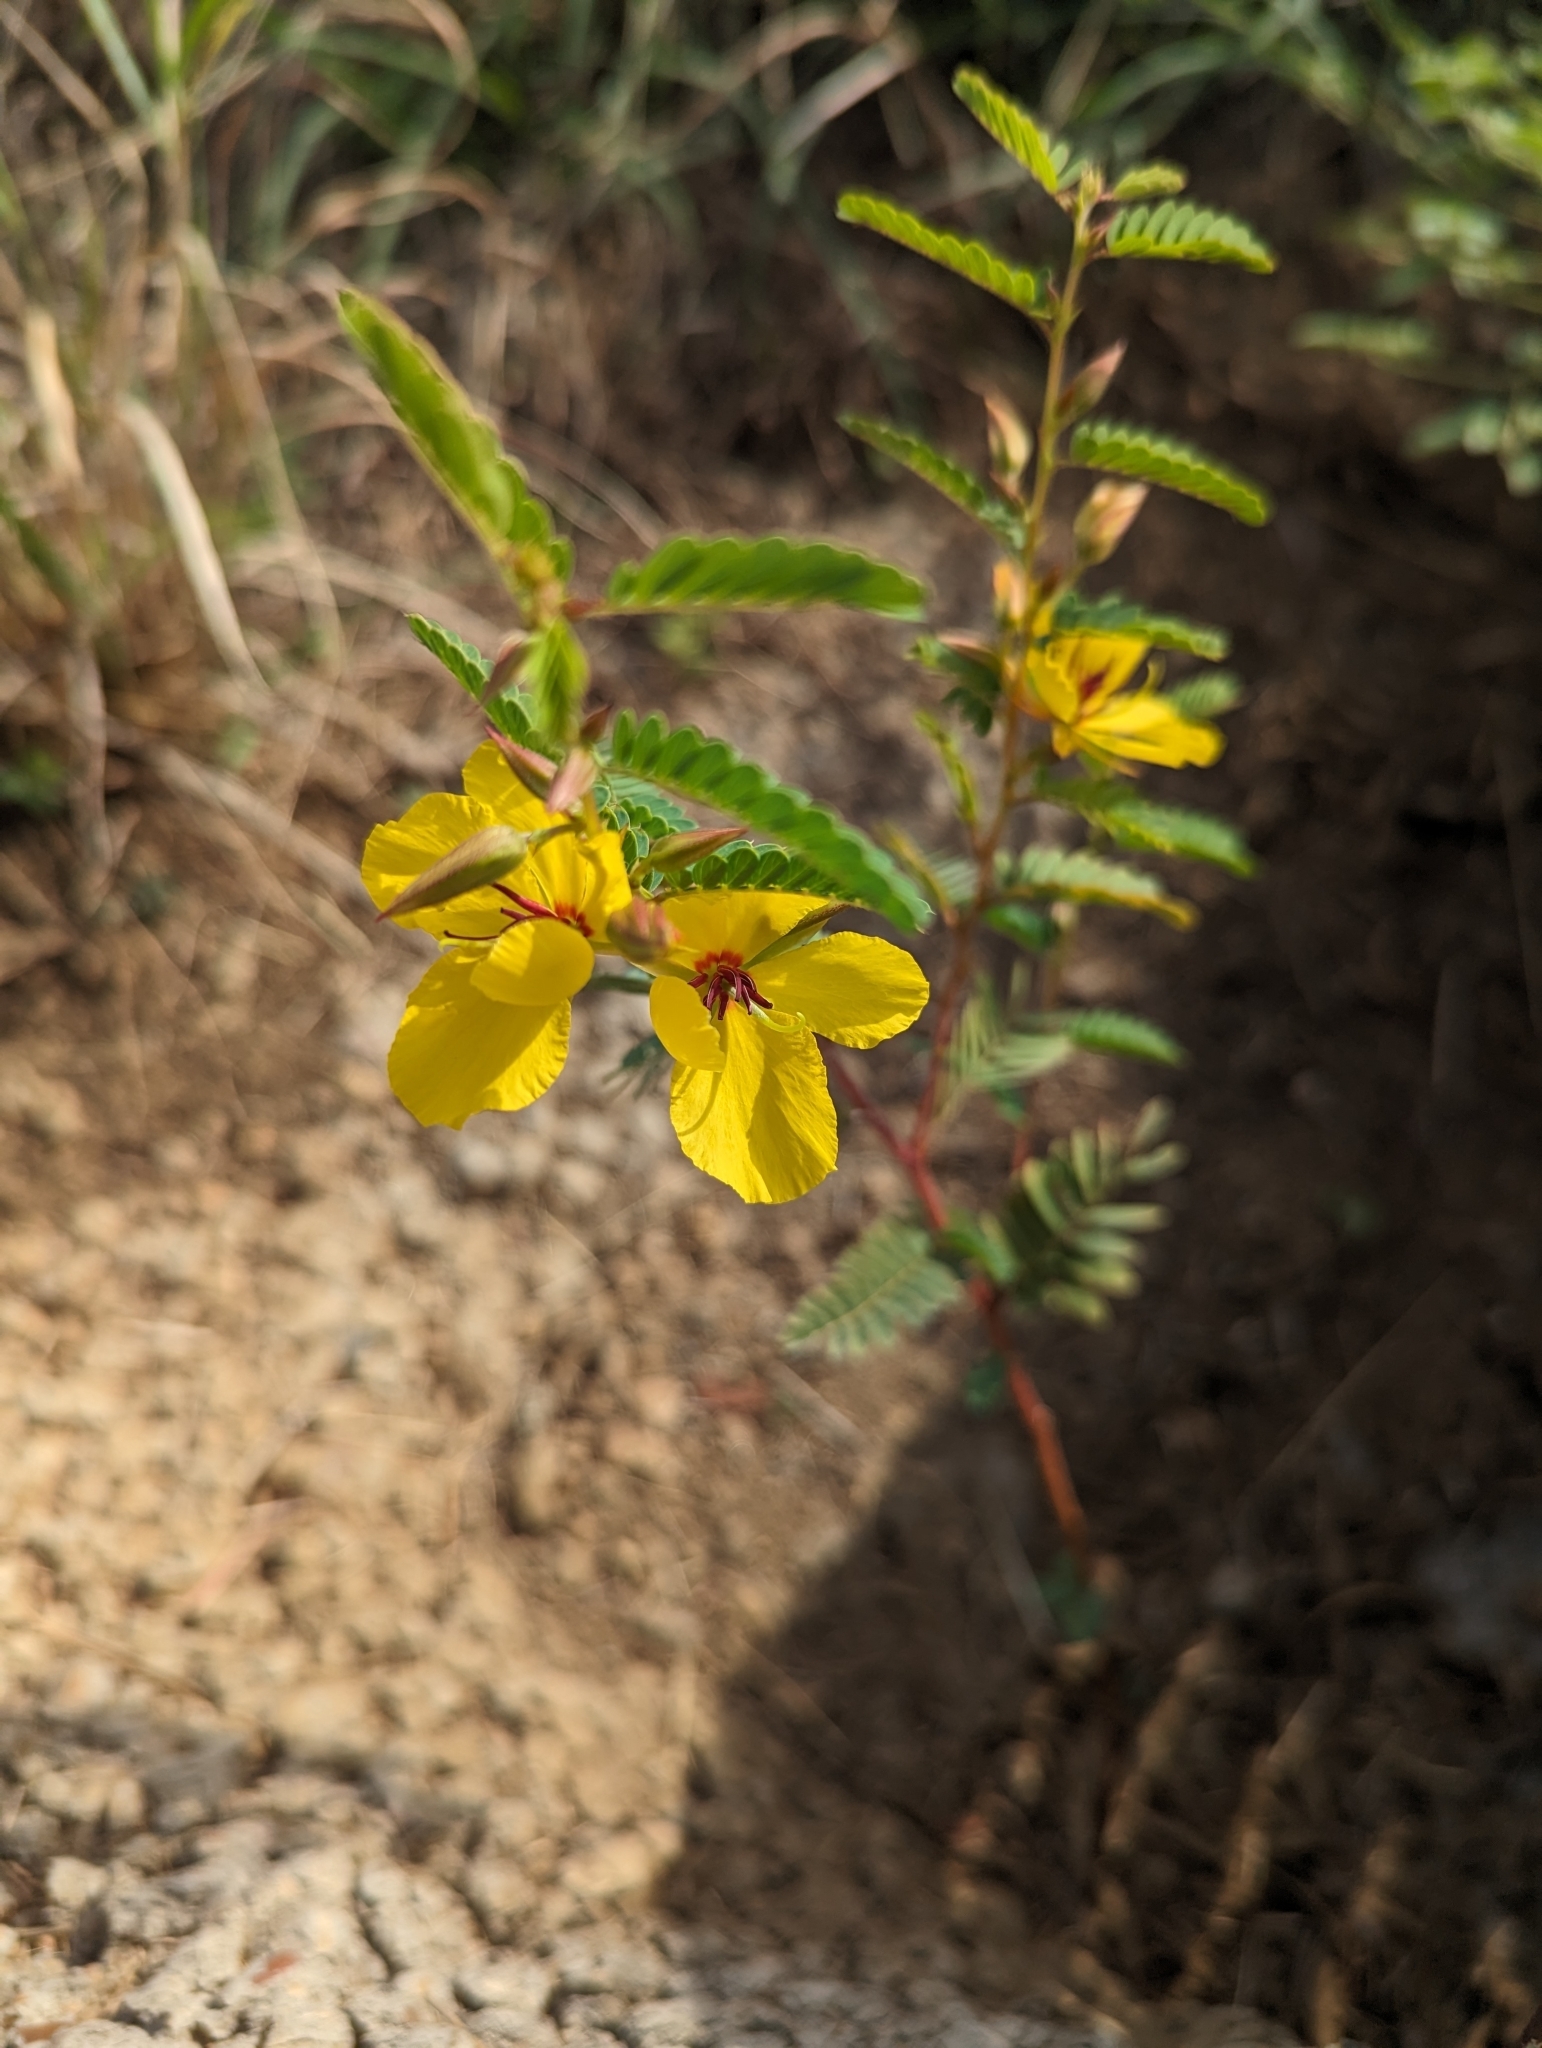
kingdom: Plantae
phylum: Tracheophyta
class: Magnoliopsida
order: Fabales
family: Fabaceae
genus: Chamaecrista
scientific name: Chamaecrista fasciculata
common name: Golden cassia
